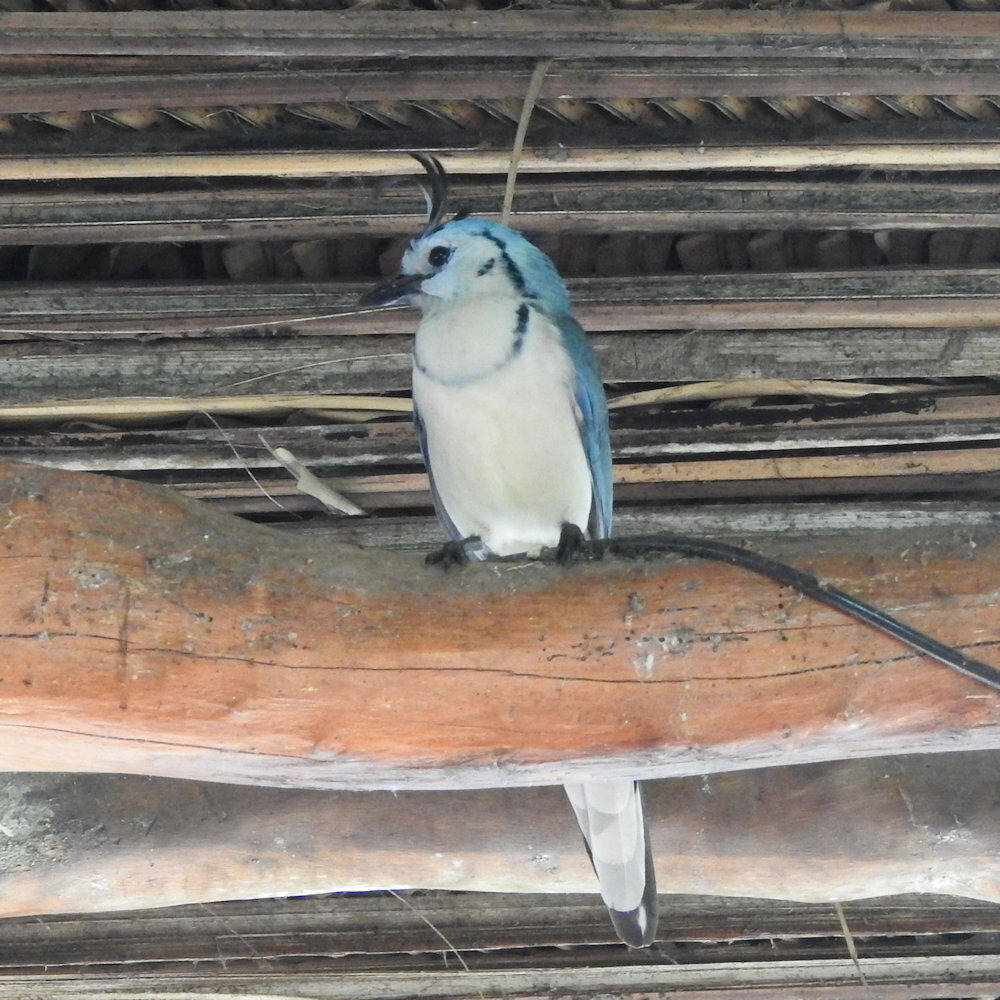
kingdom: Animalia
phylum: Chordata
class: Aves
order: Passeriformes
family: Corvidae
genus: Calocitta
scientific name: Calocitta formosa
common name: White-throated magpie-jay
